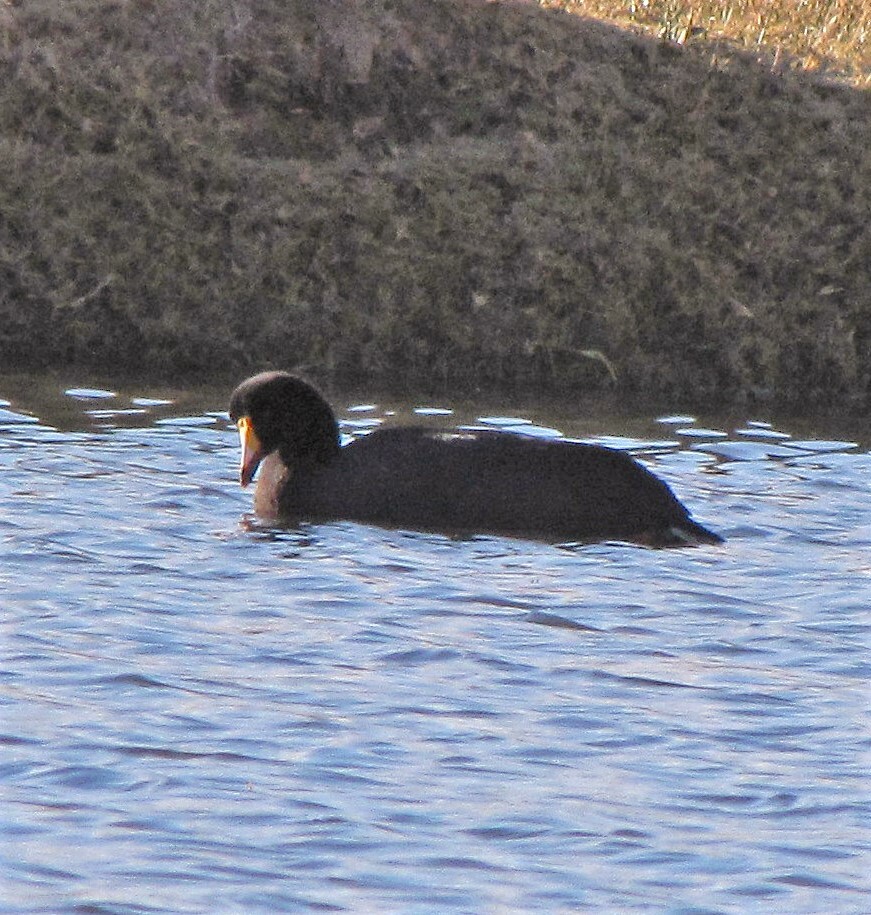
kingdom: Animalia
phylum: Chordata
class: Aves
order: Gruiformes
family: Rallidae
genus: Fulica
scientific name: Fulica gigantea
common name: Giant coot
